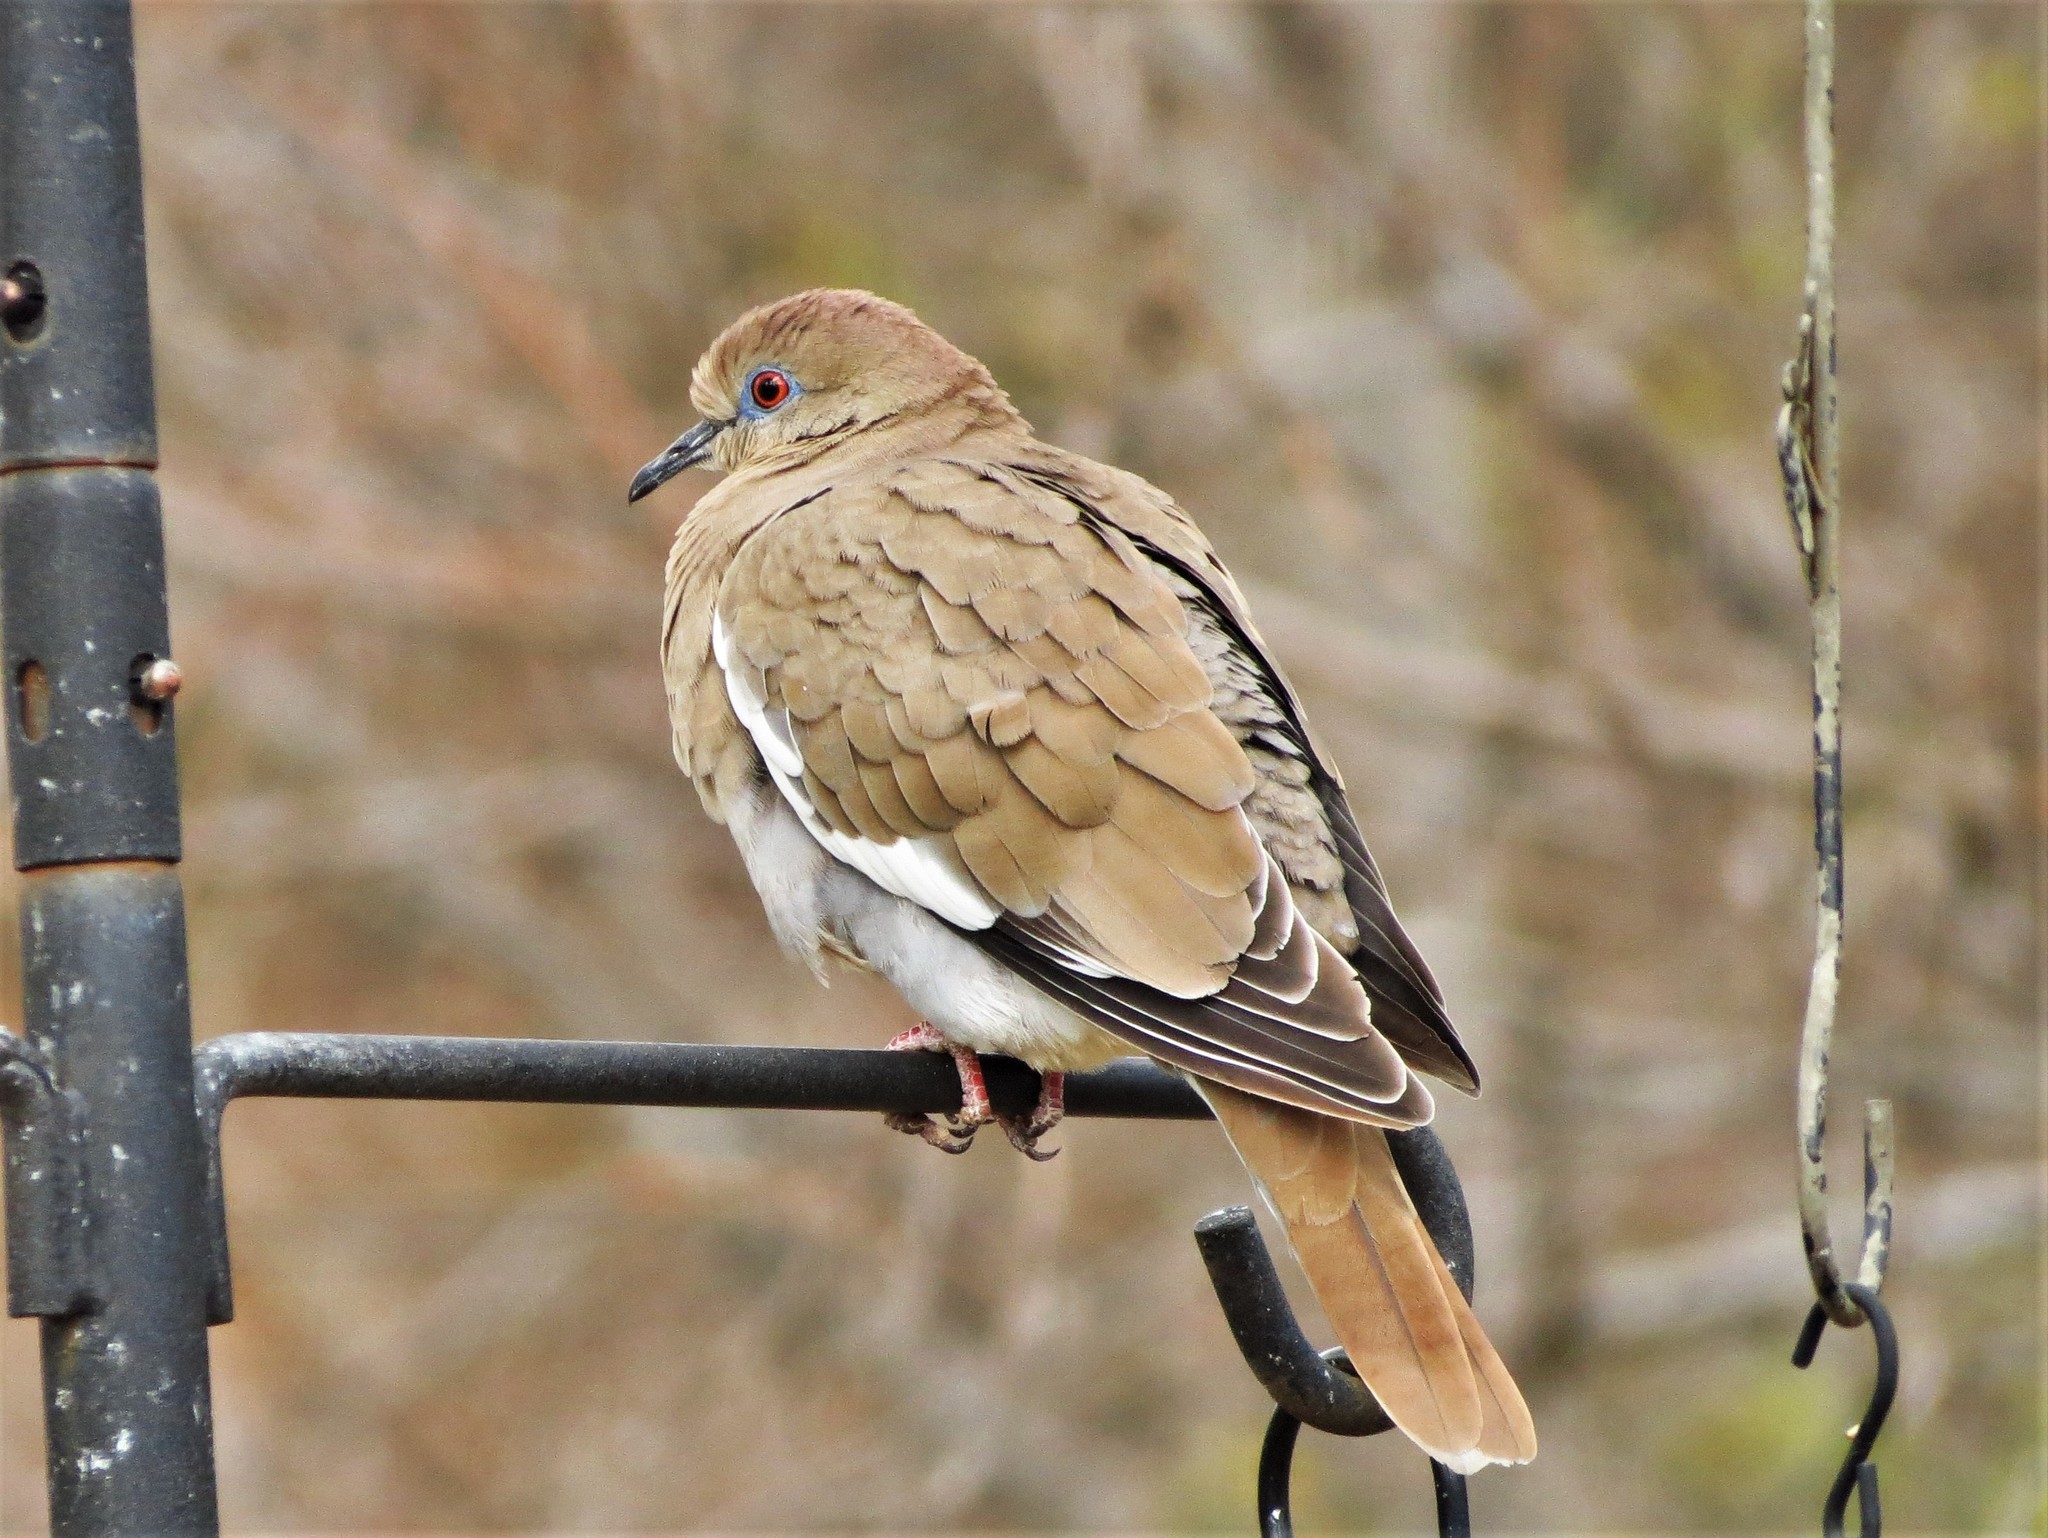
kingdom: Animalia
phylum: Chordata
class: Aves
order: Columbiformes
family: Columbidae
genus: Zenaida
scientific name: Zenaida asiatica
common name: White-winged dove
